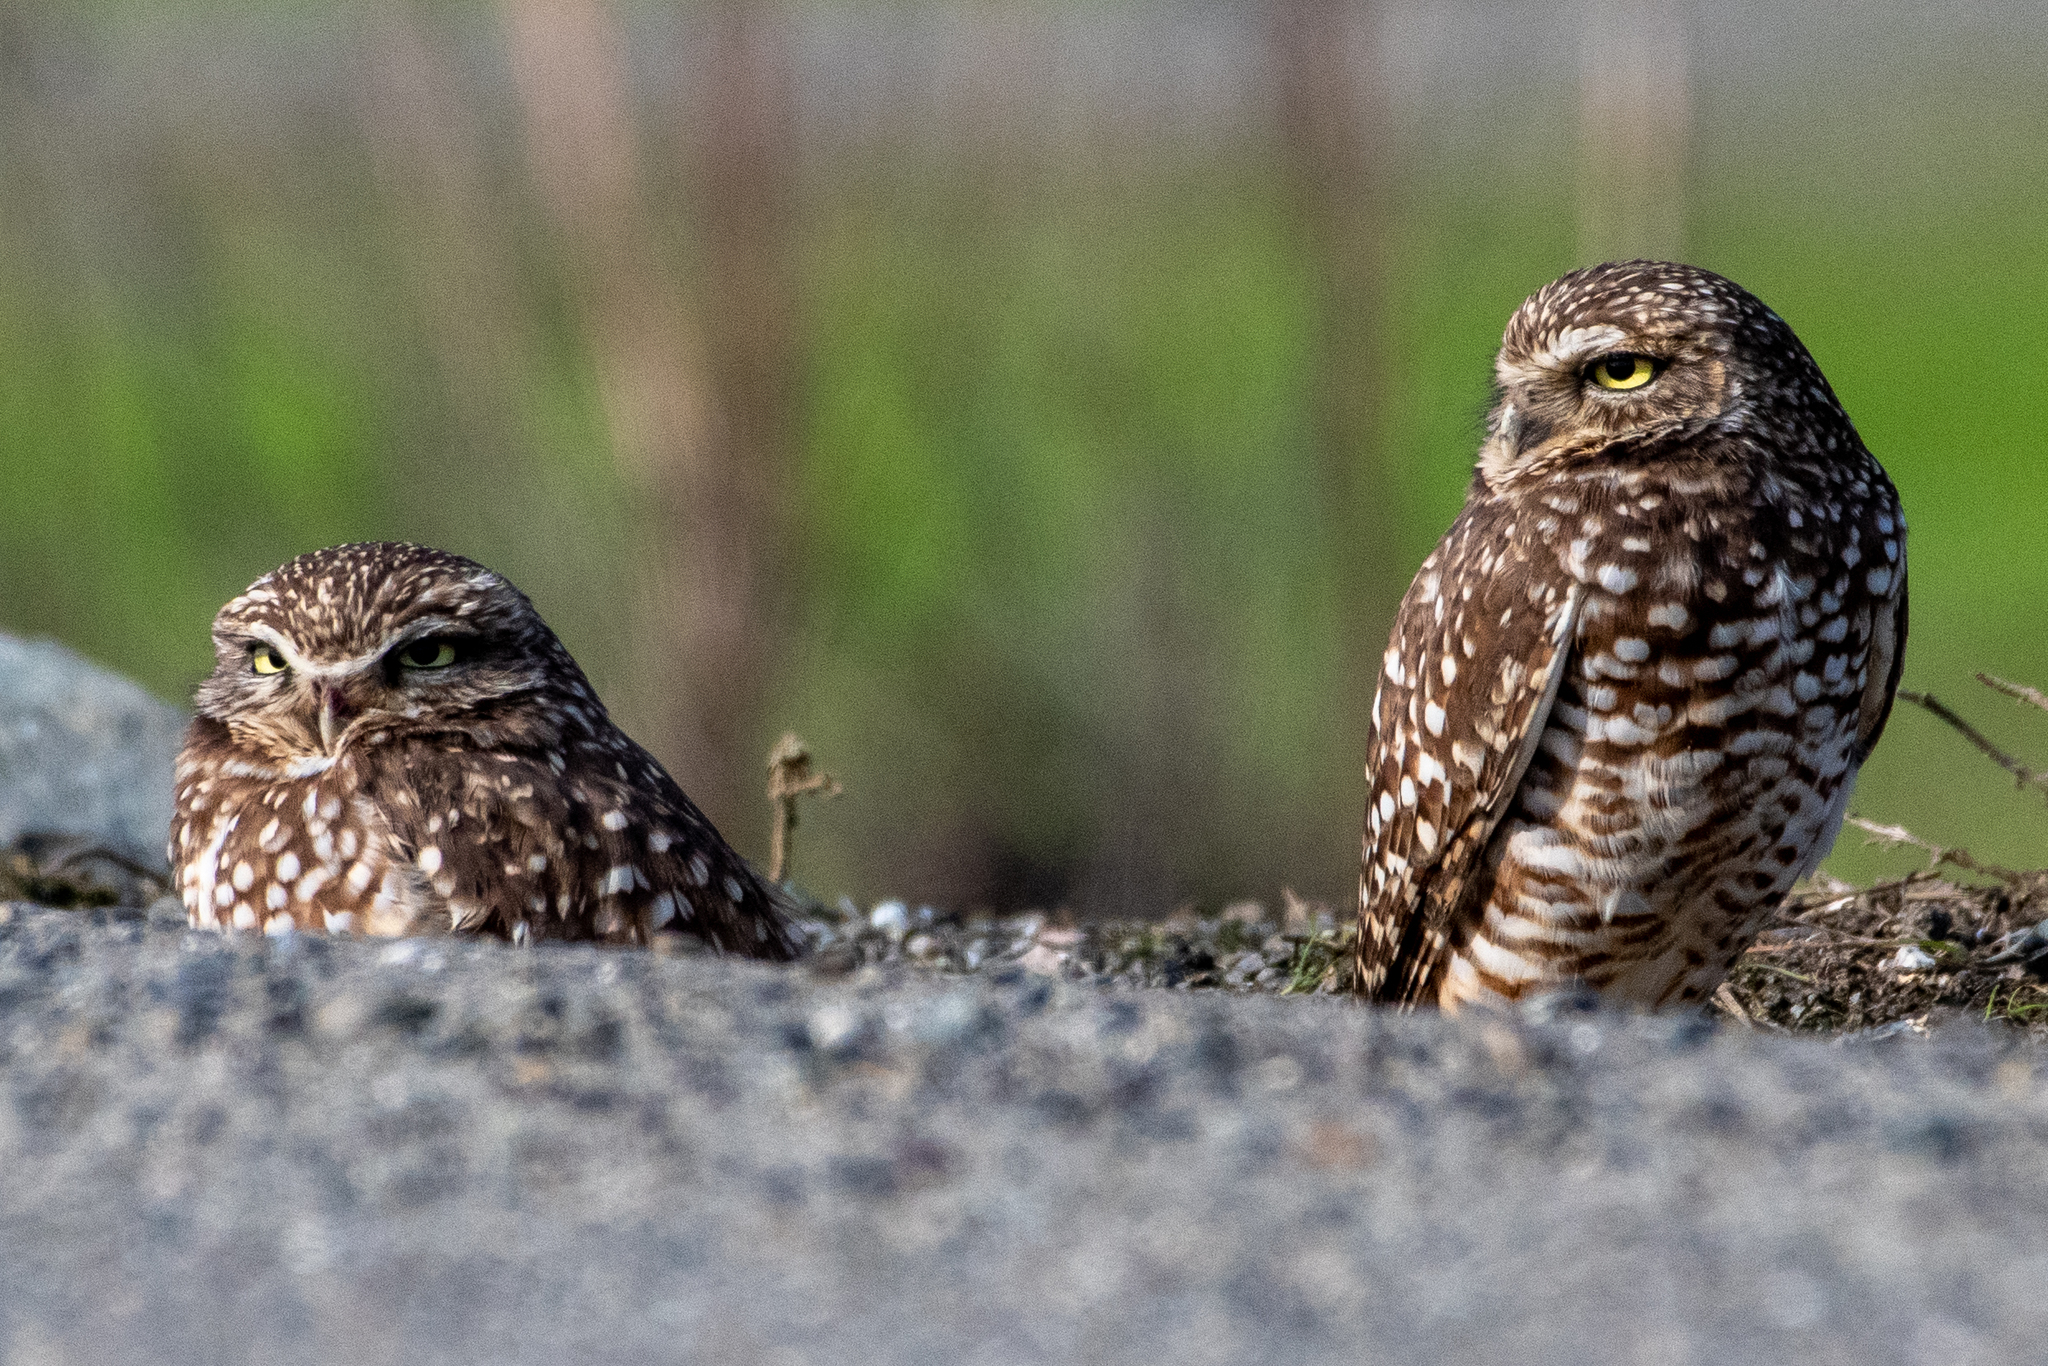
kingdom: Animalia
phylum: Chordata
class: Aves
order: Strigiformes
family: Strigidae
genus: Athene
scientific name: Athene cunicularia
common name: Burrowing owl
